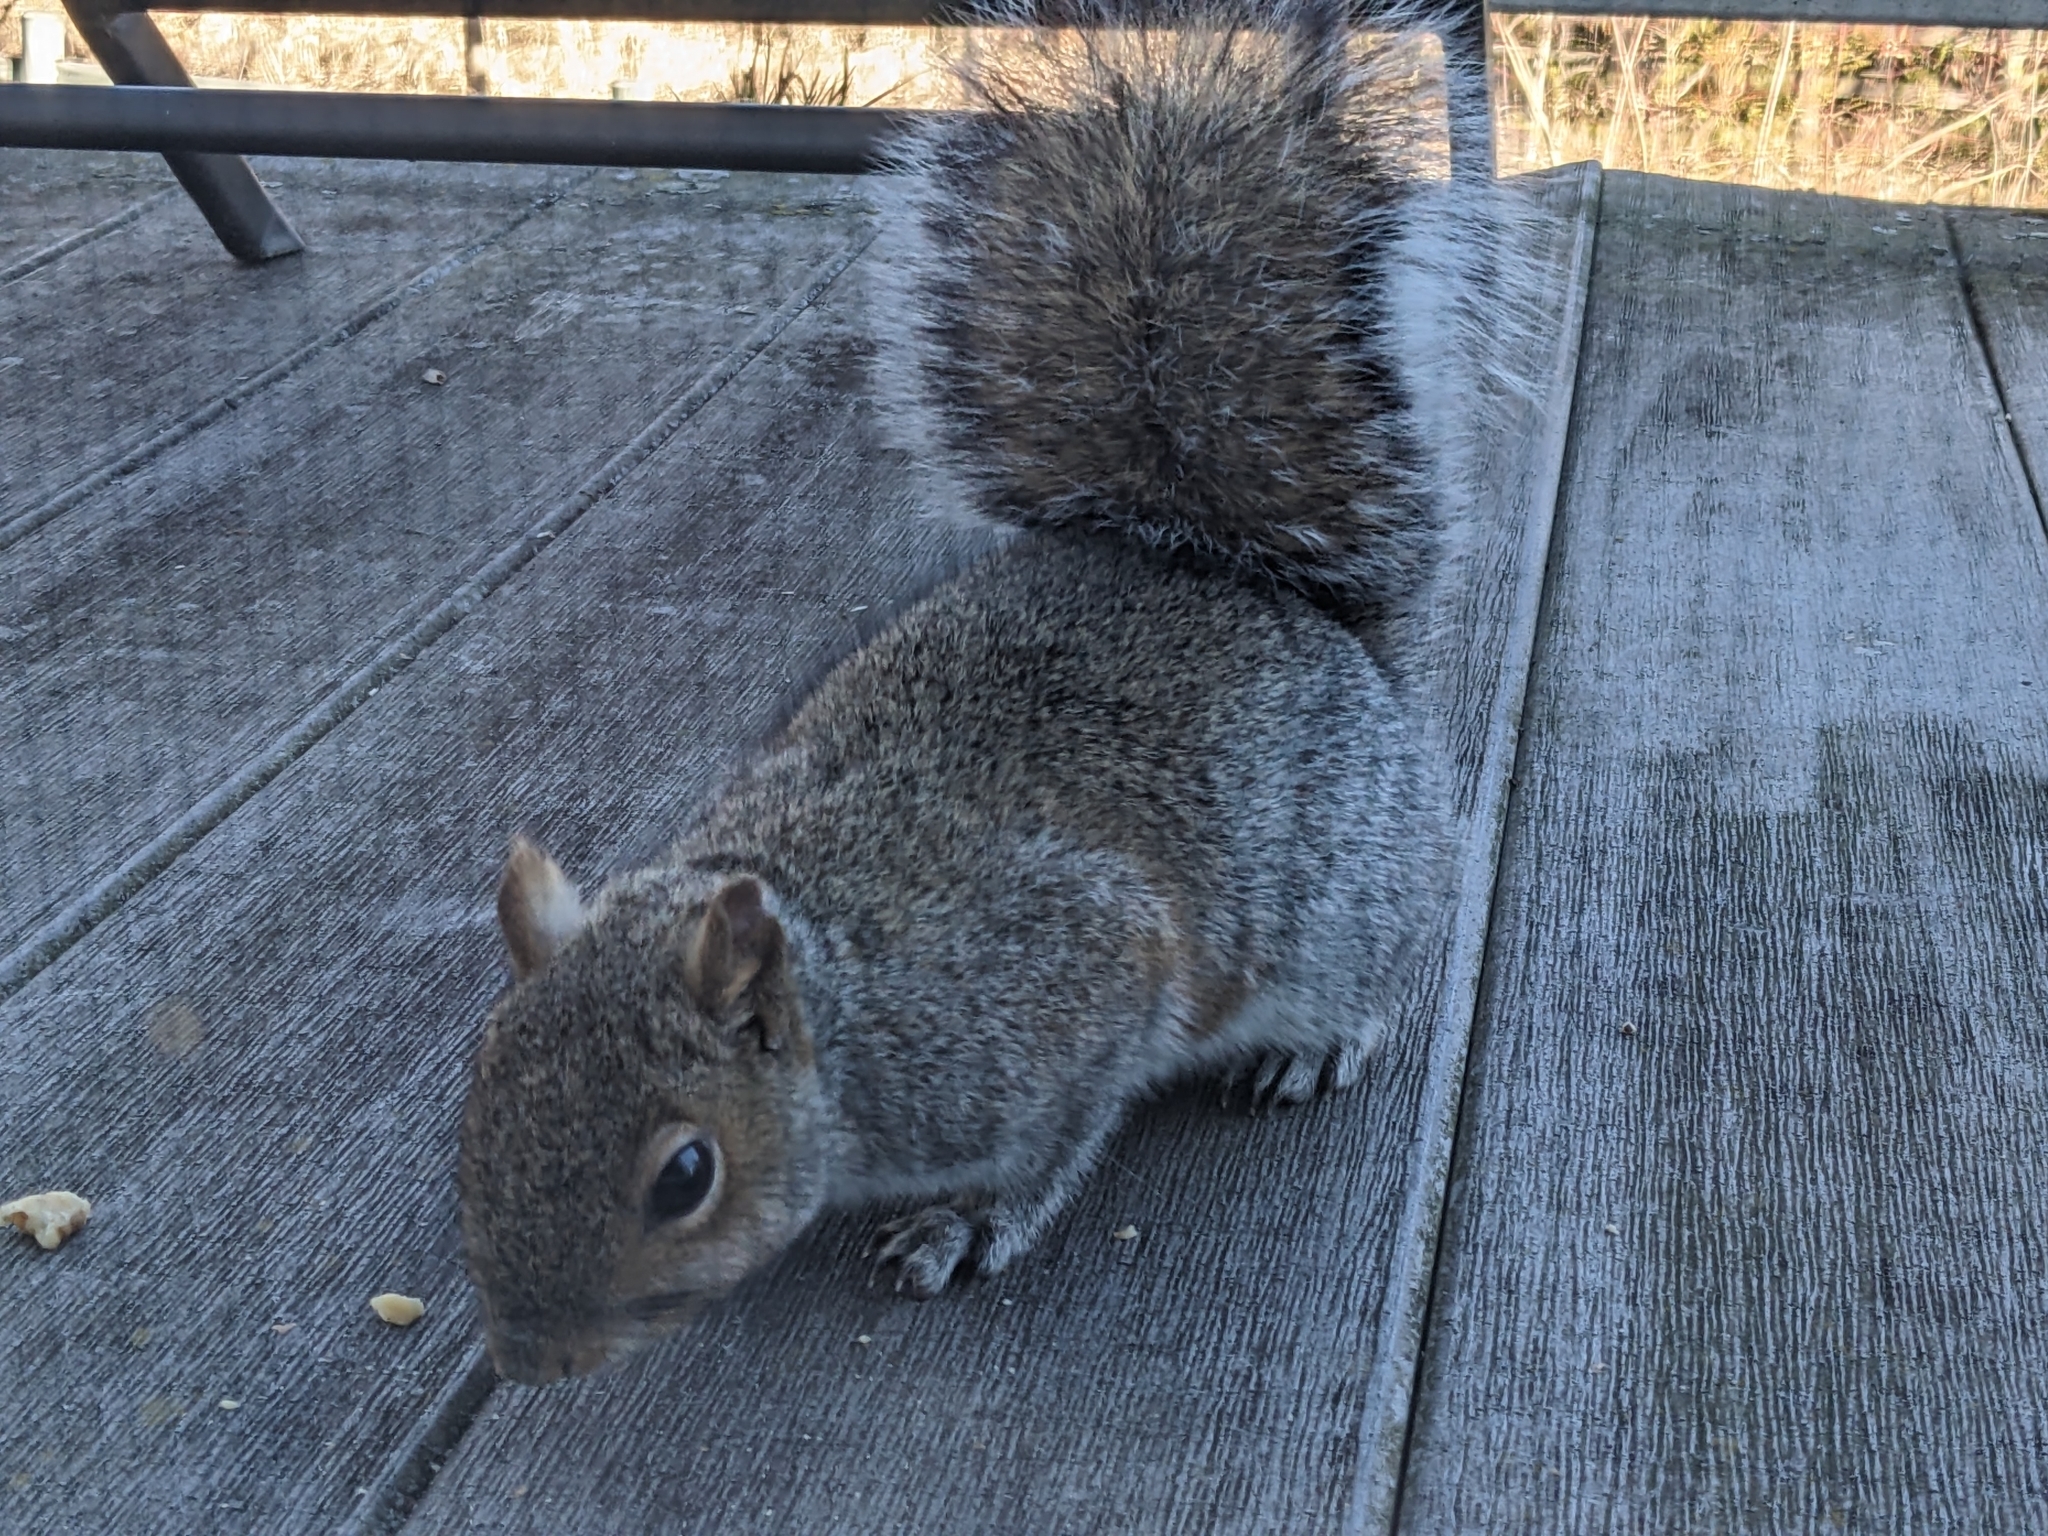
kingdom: Animalia
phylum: Chordata
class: Mammalia
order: Rodentia
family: Sciuridae
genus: Sciurus
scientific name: Sciurus carolinensis
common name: Eastern gray squirrel
